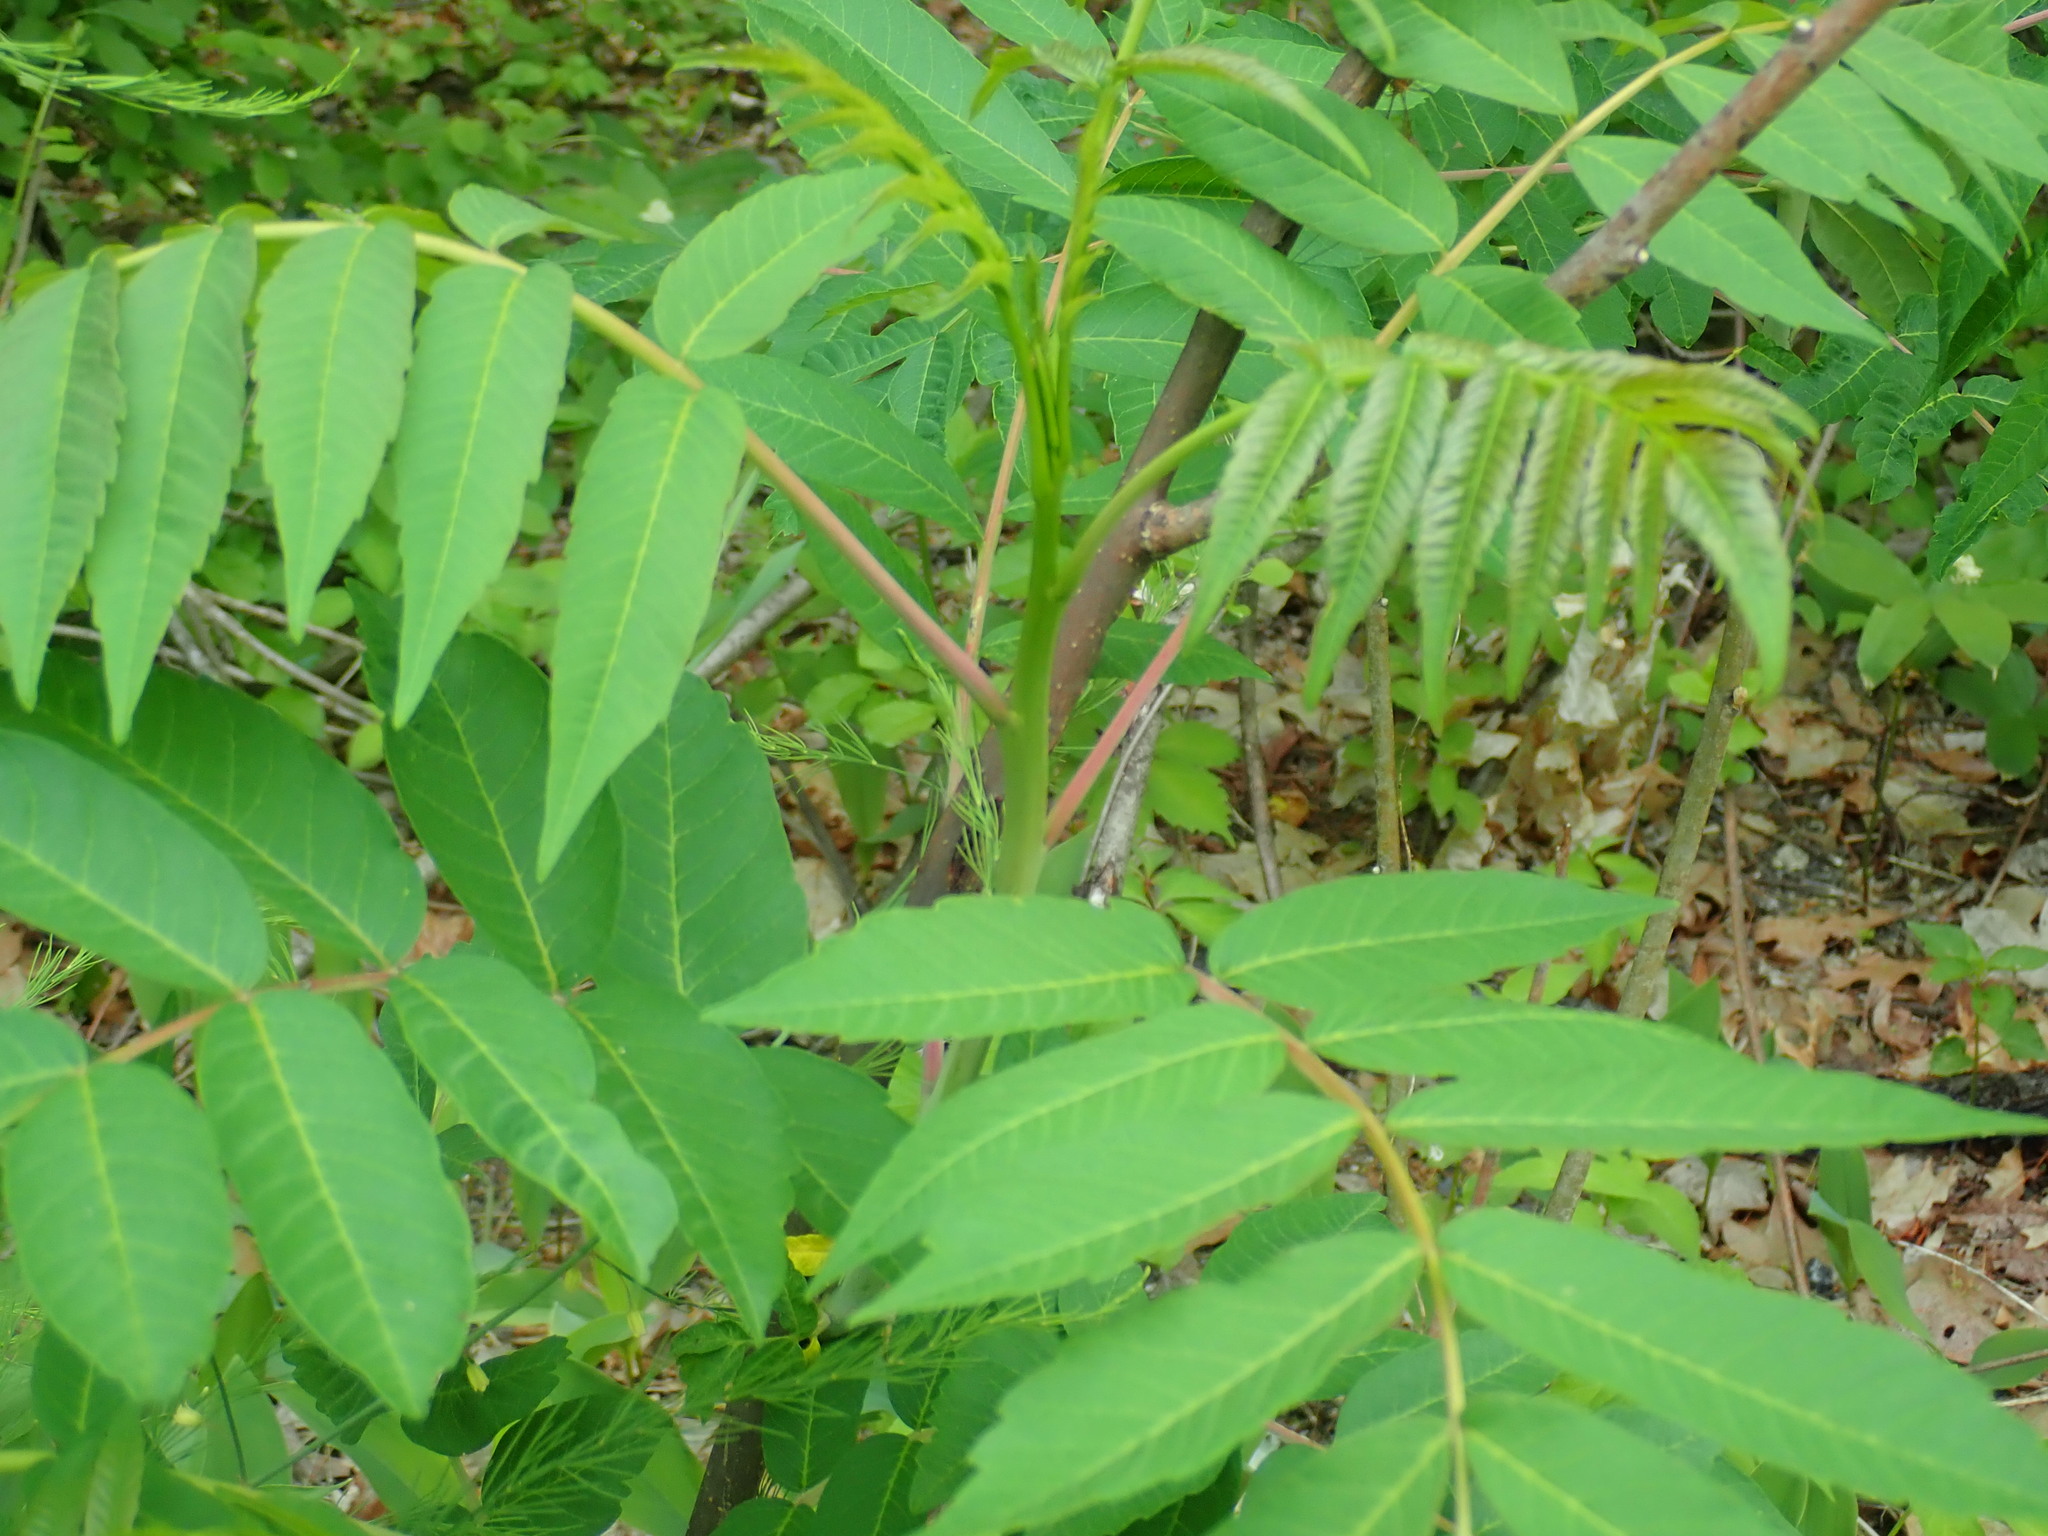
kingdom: Plantae
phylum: Tracheophyta
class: Magnoliopsida
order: Sapindales
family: Anacardiaceae
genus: Rhus
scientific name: Rhus glabra
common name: Scarlet sumac
